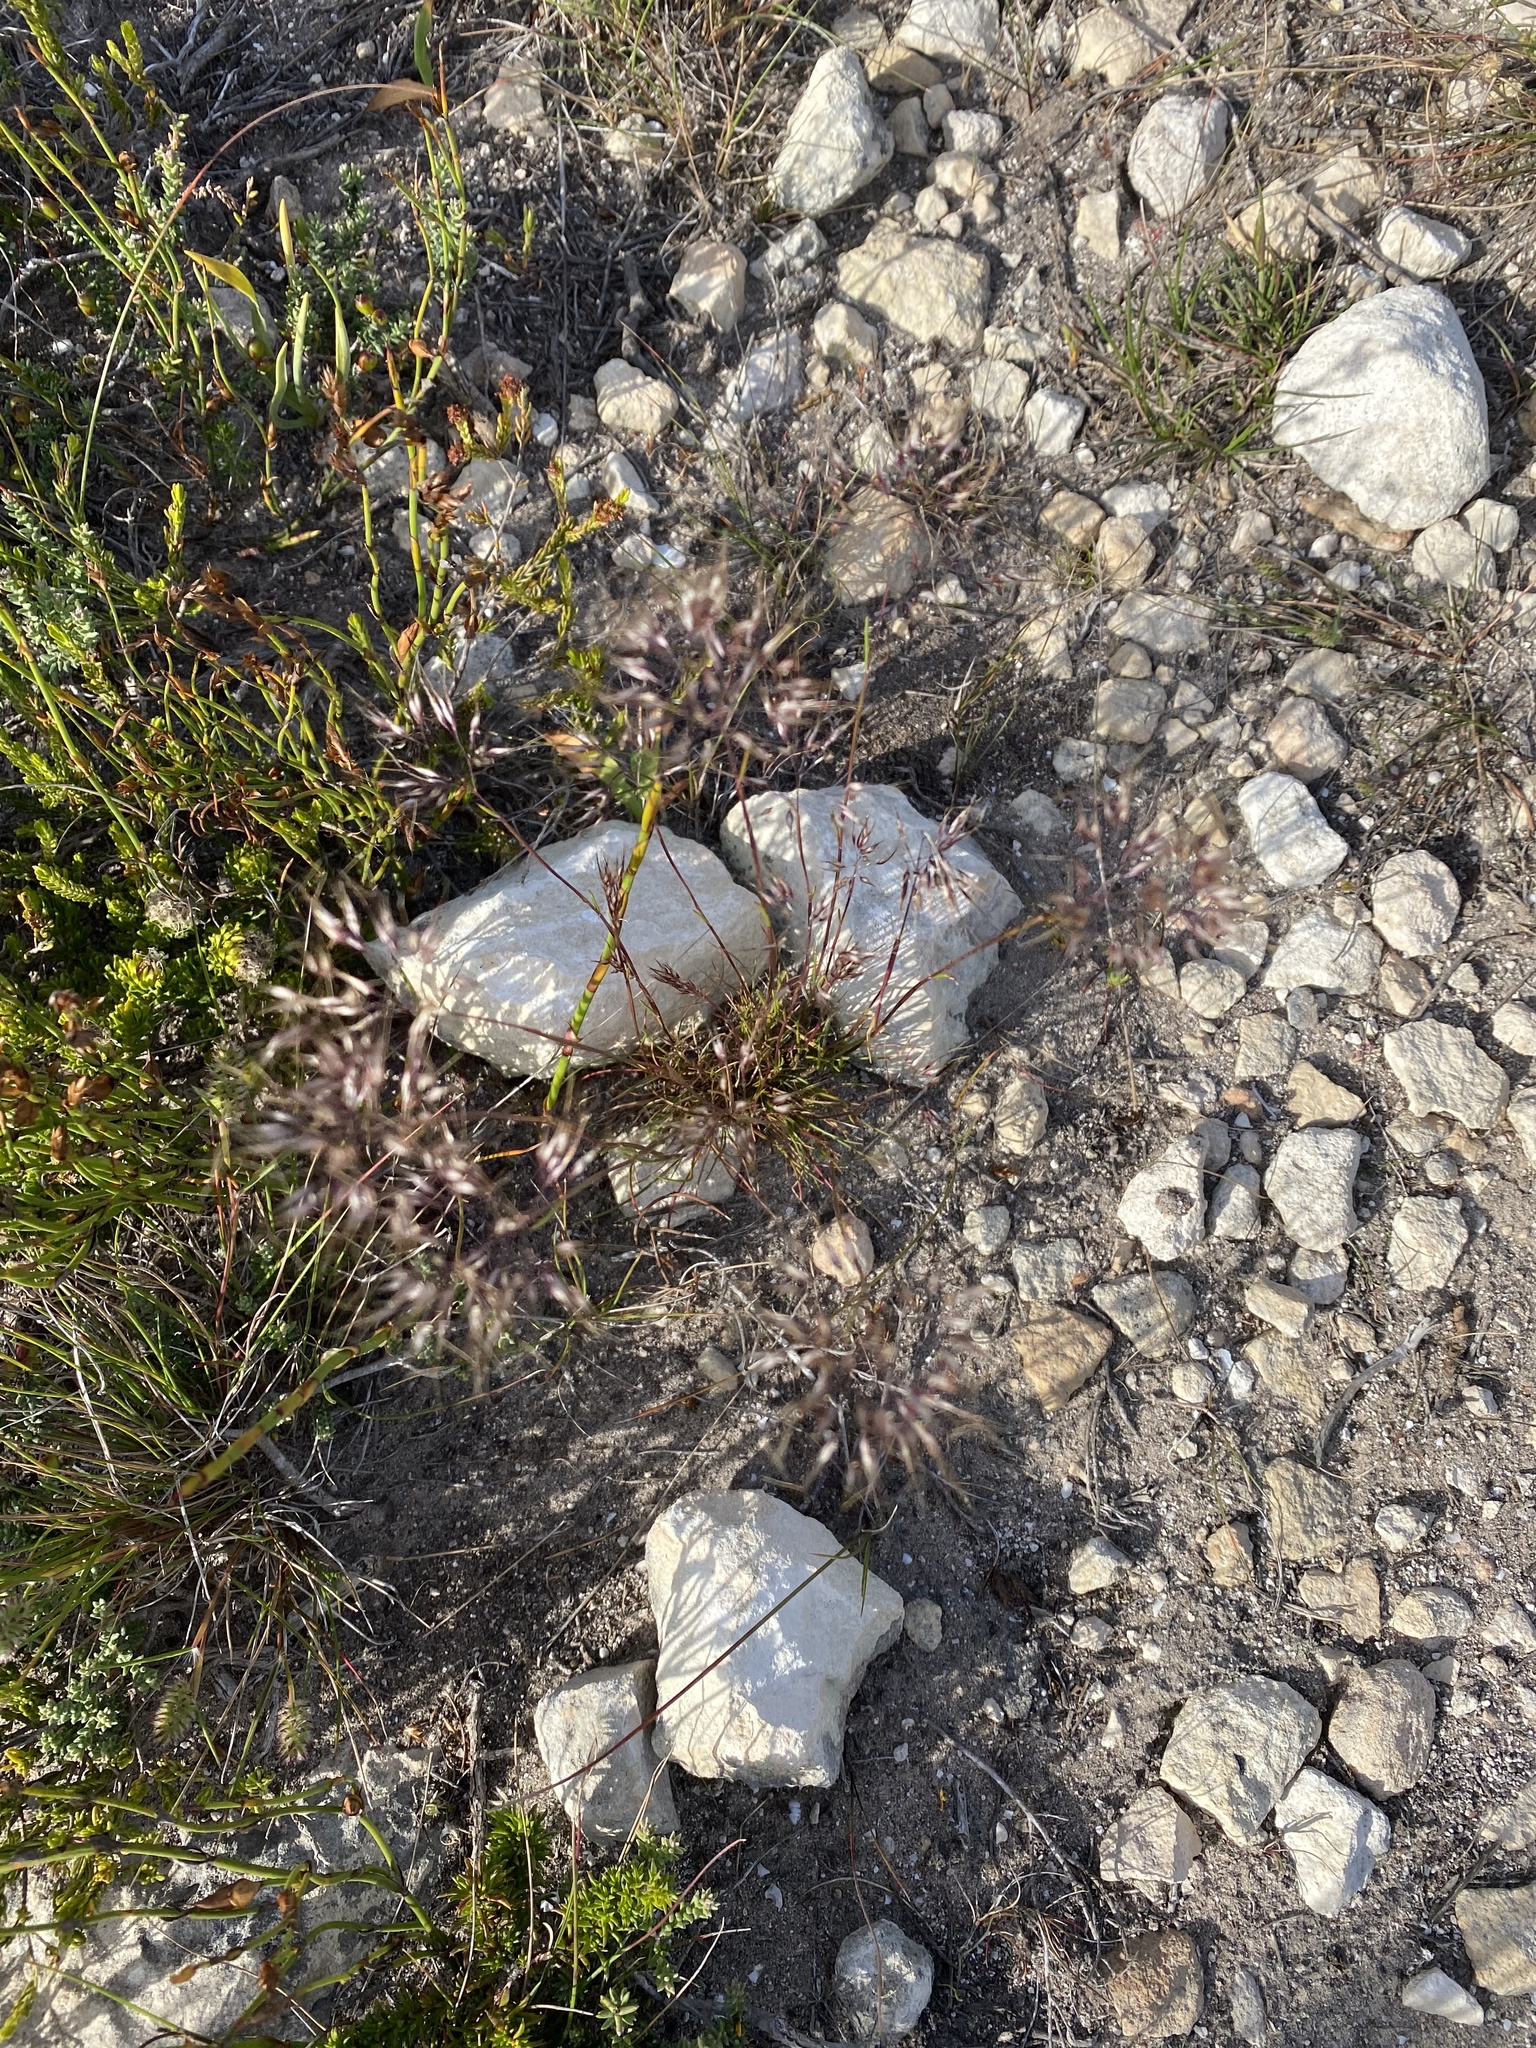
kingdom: Plantae
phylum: Tracheophyta
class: Liliopsida
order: Poales
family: Poaceae
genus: Pentameris
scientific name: Pentameris curvifolia
